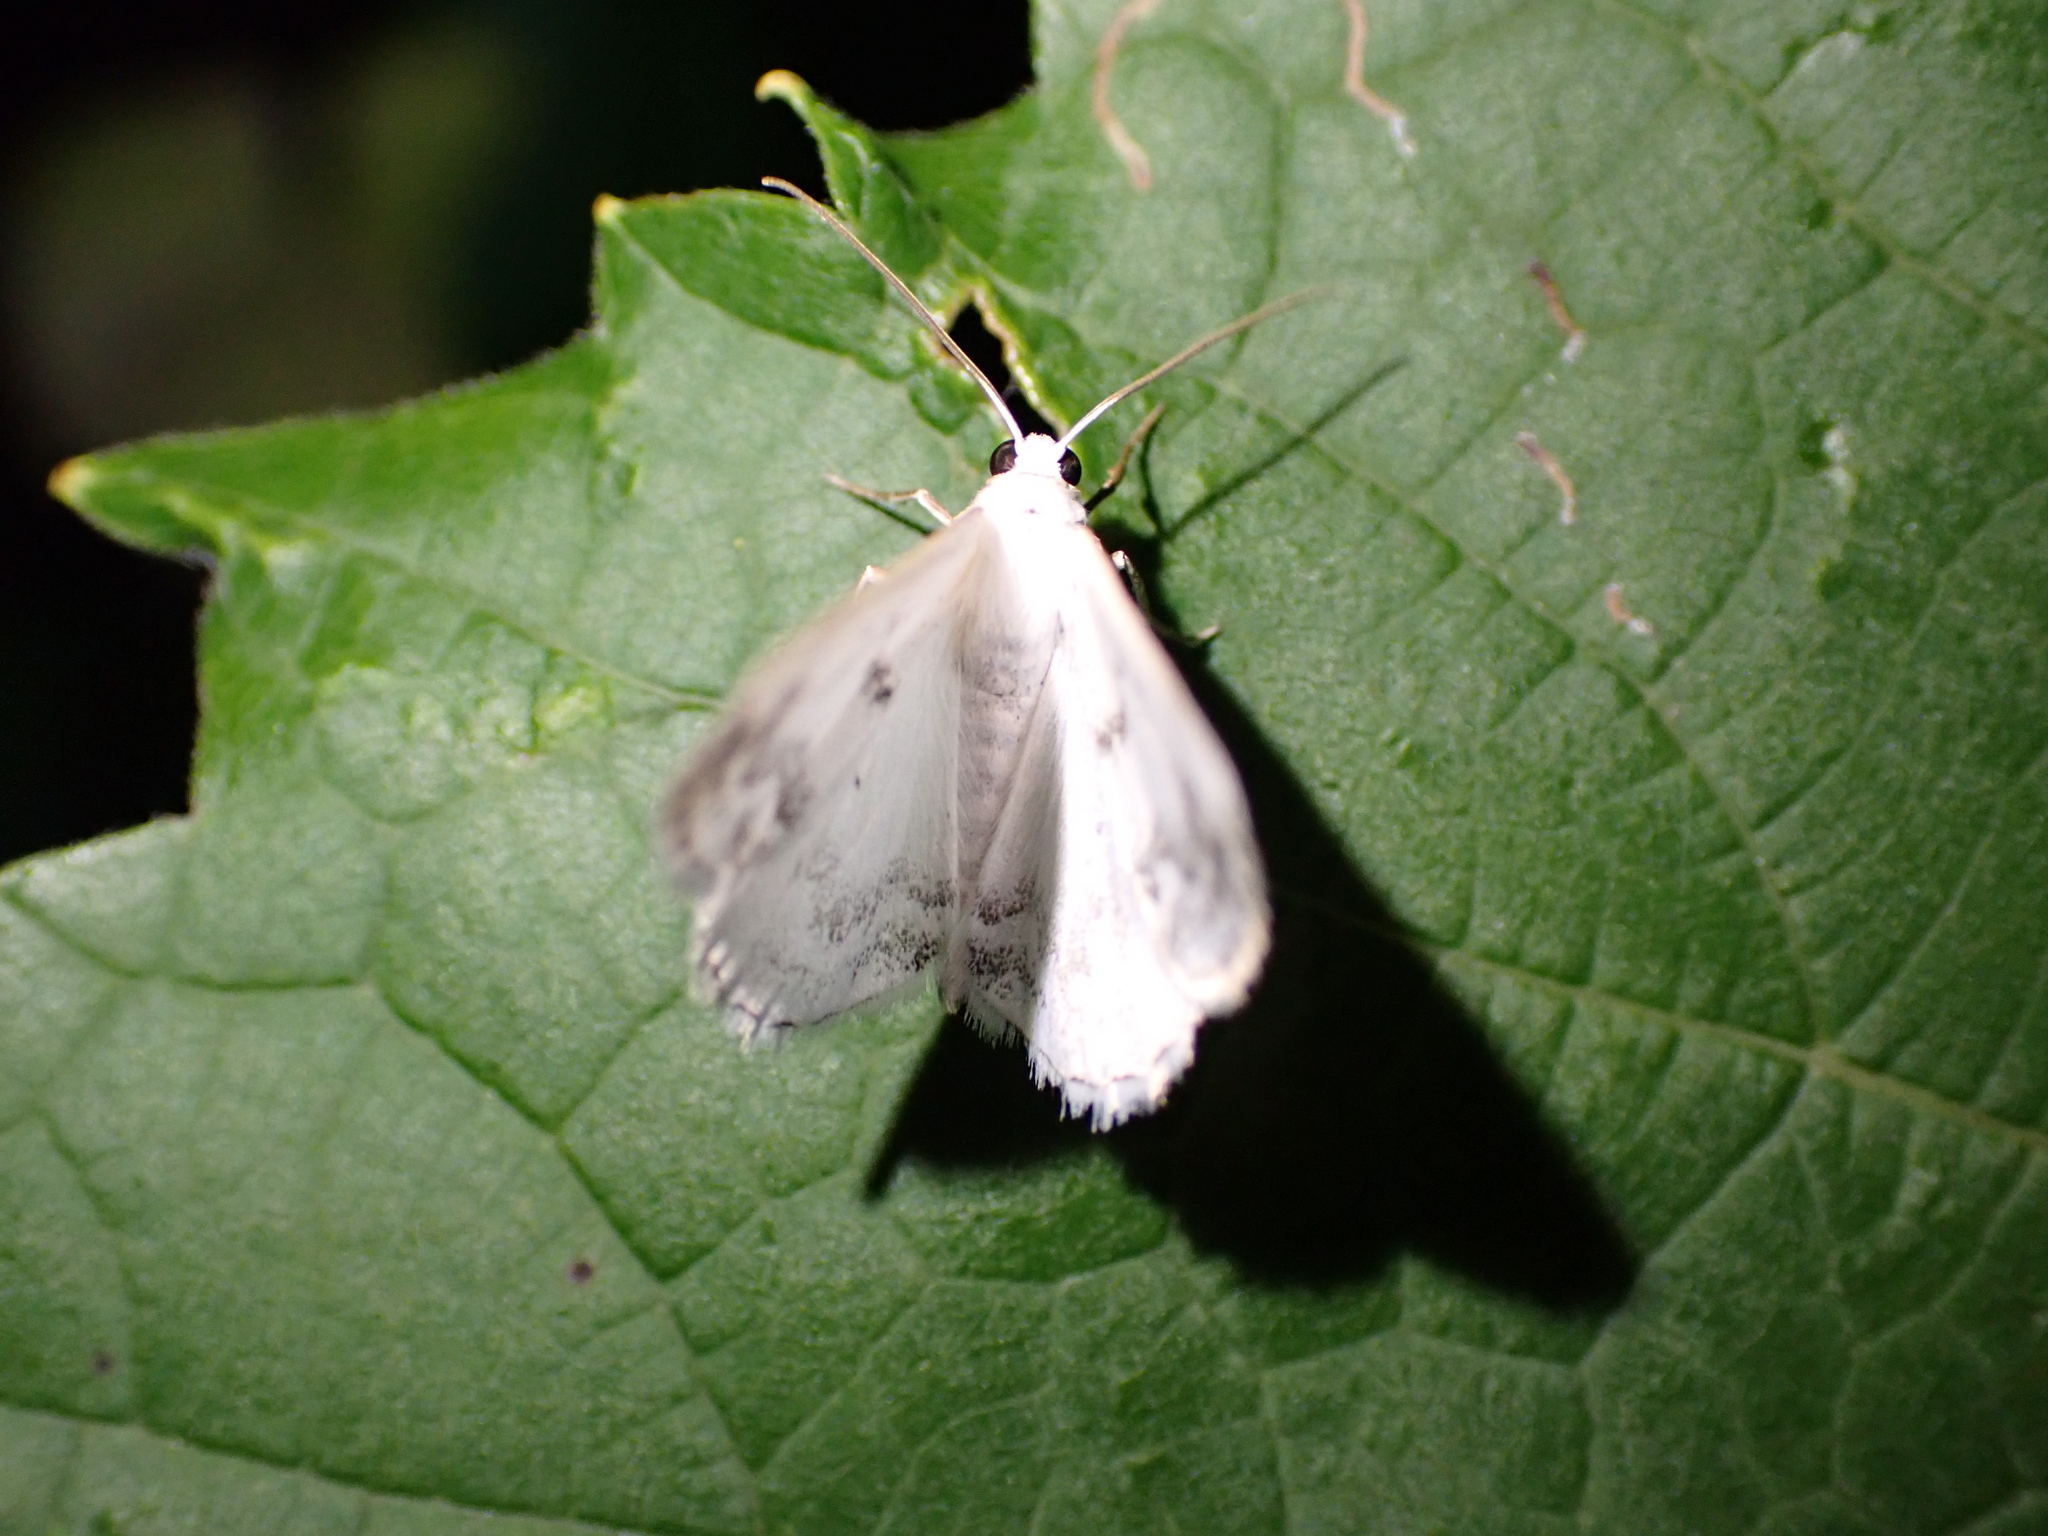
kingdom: Animalia
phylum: Arthropoda
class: Insecta
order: Lepidoptera
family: Geometridae
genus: Lomographa
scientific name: Lomographa temerata
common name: Clouded silver
